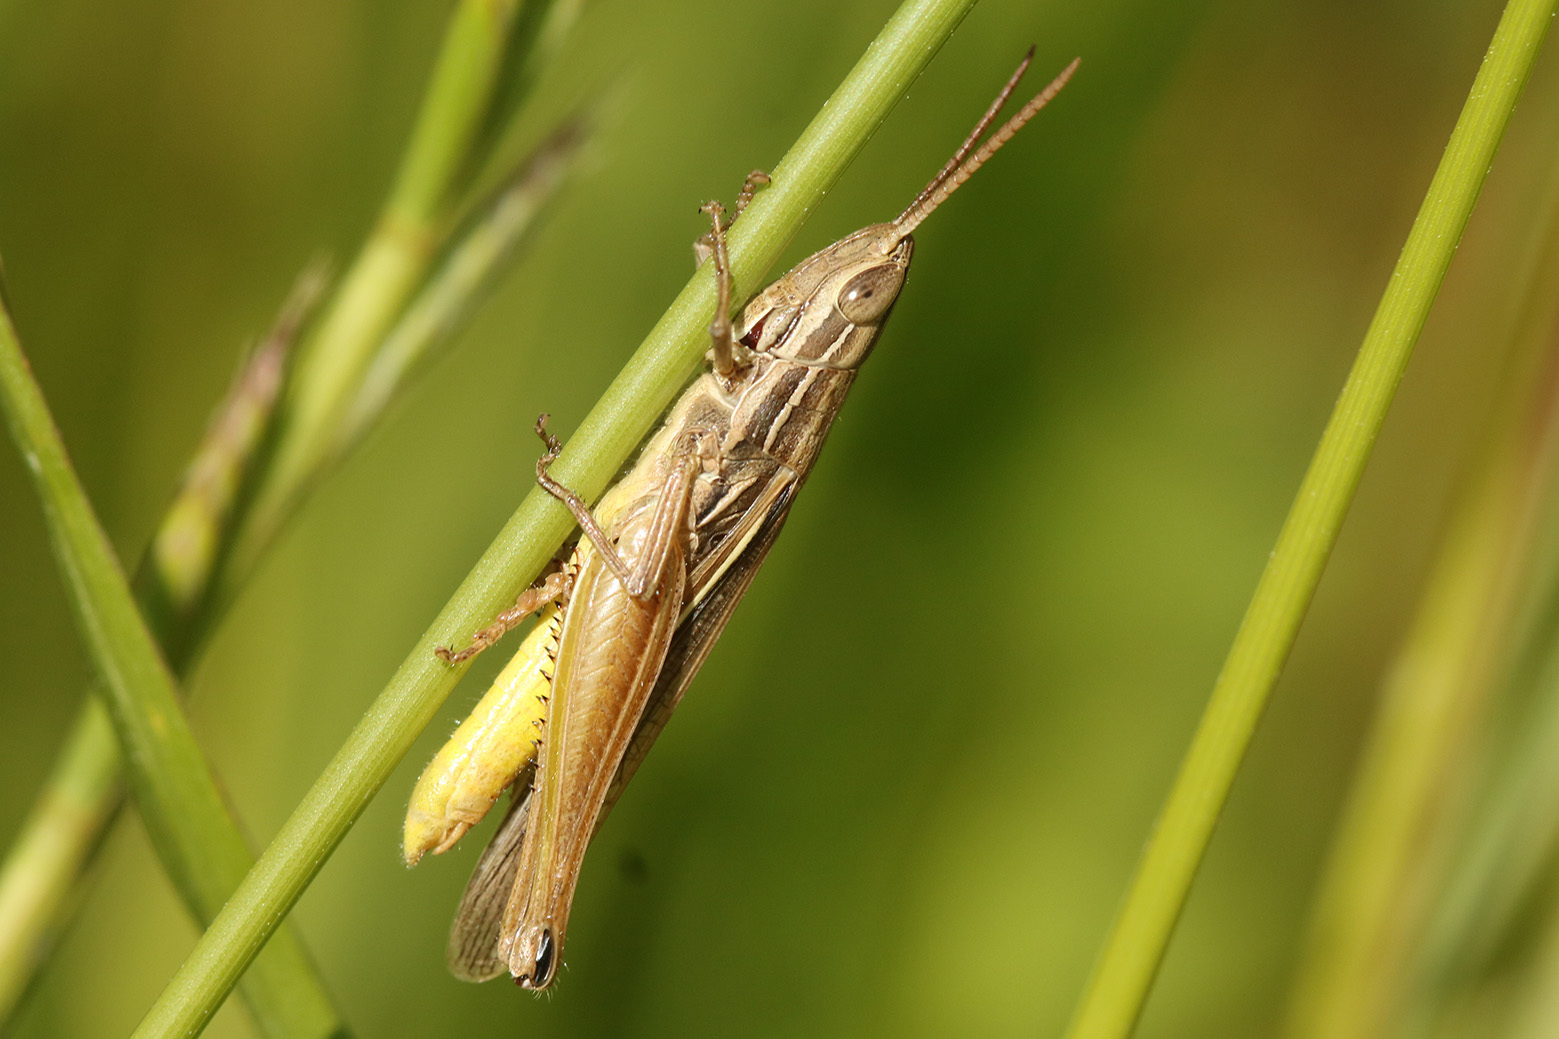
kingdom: Animalia
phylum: Arthropoda
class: Insecta
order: Orthoptera
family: Acrididae
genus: Sinipta
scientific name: Sinipta dalmani
